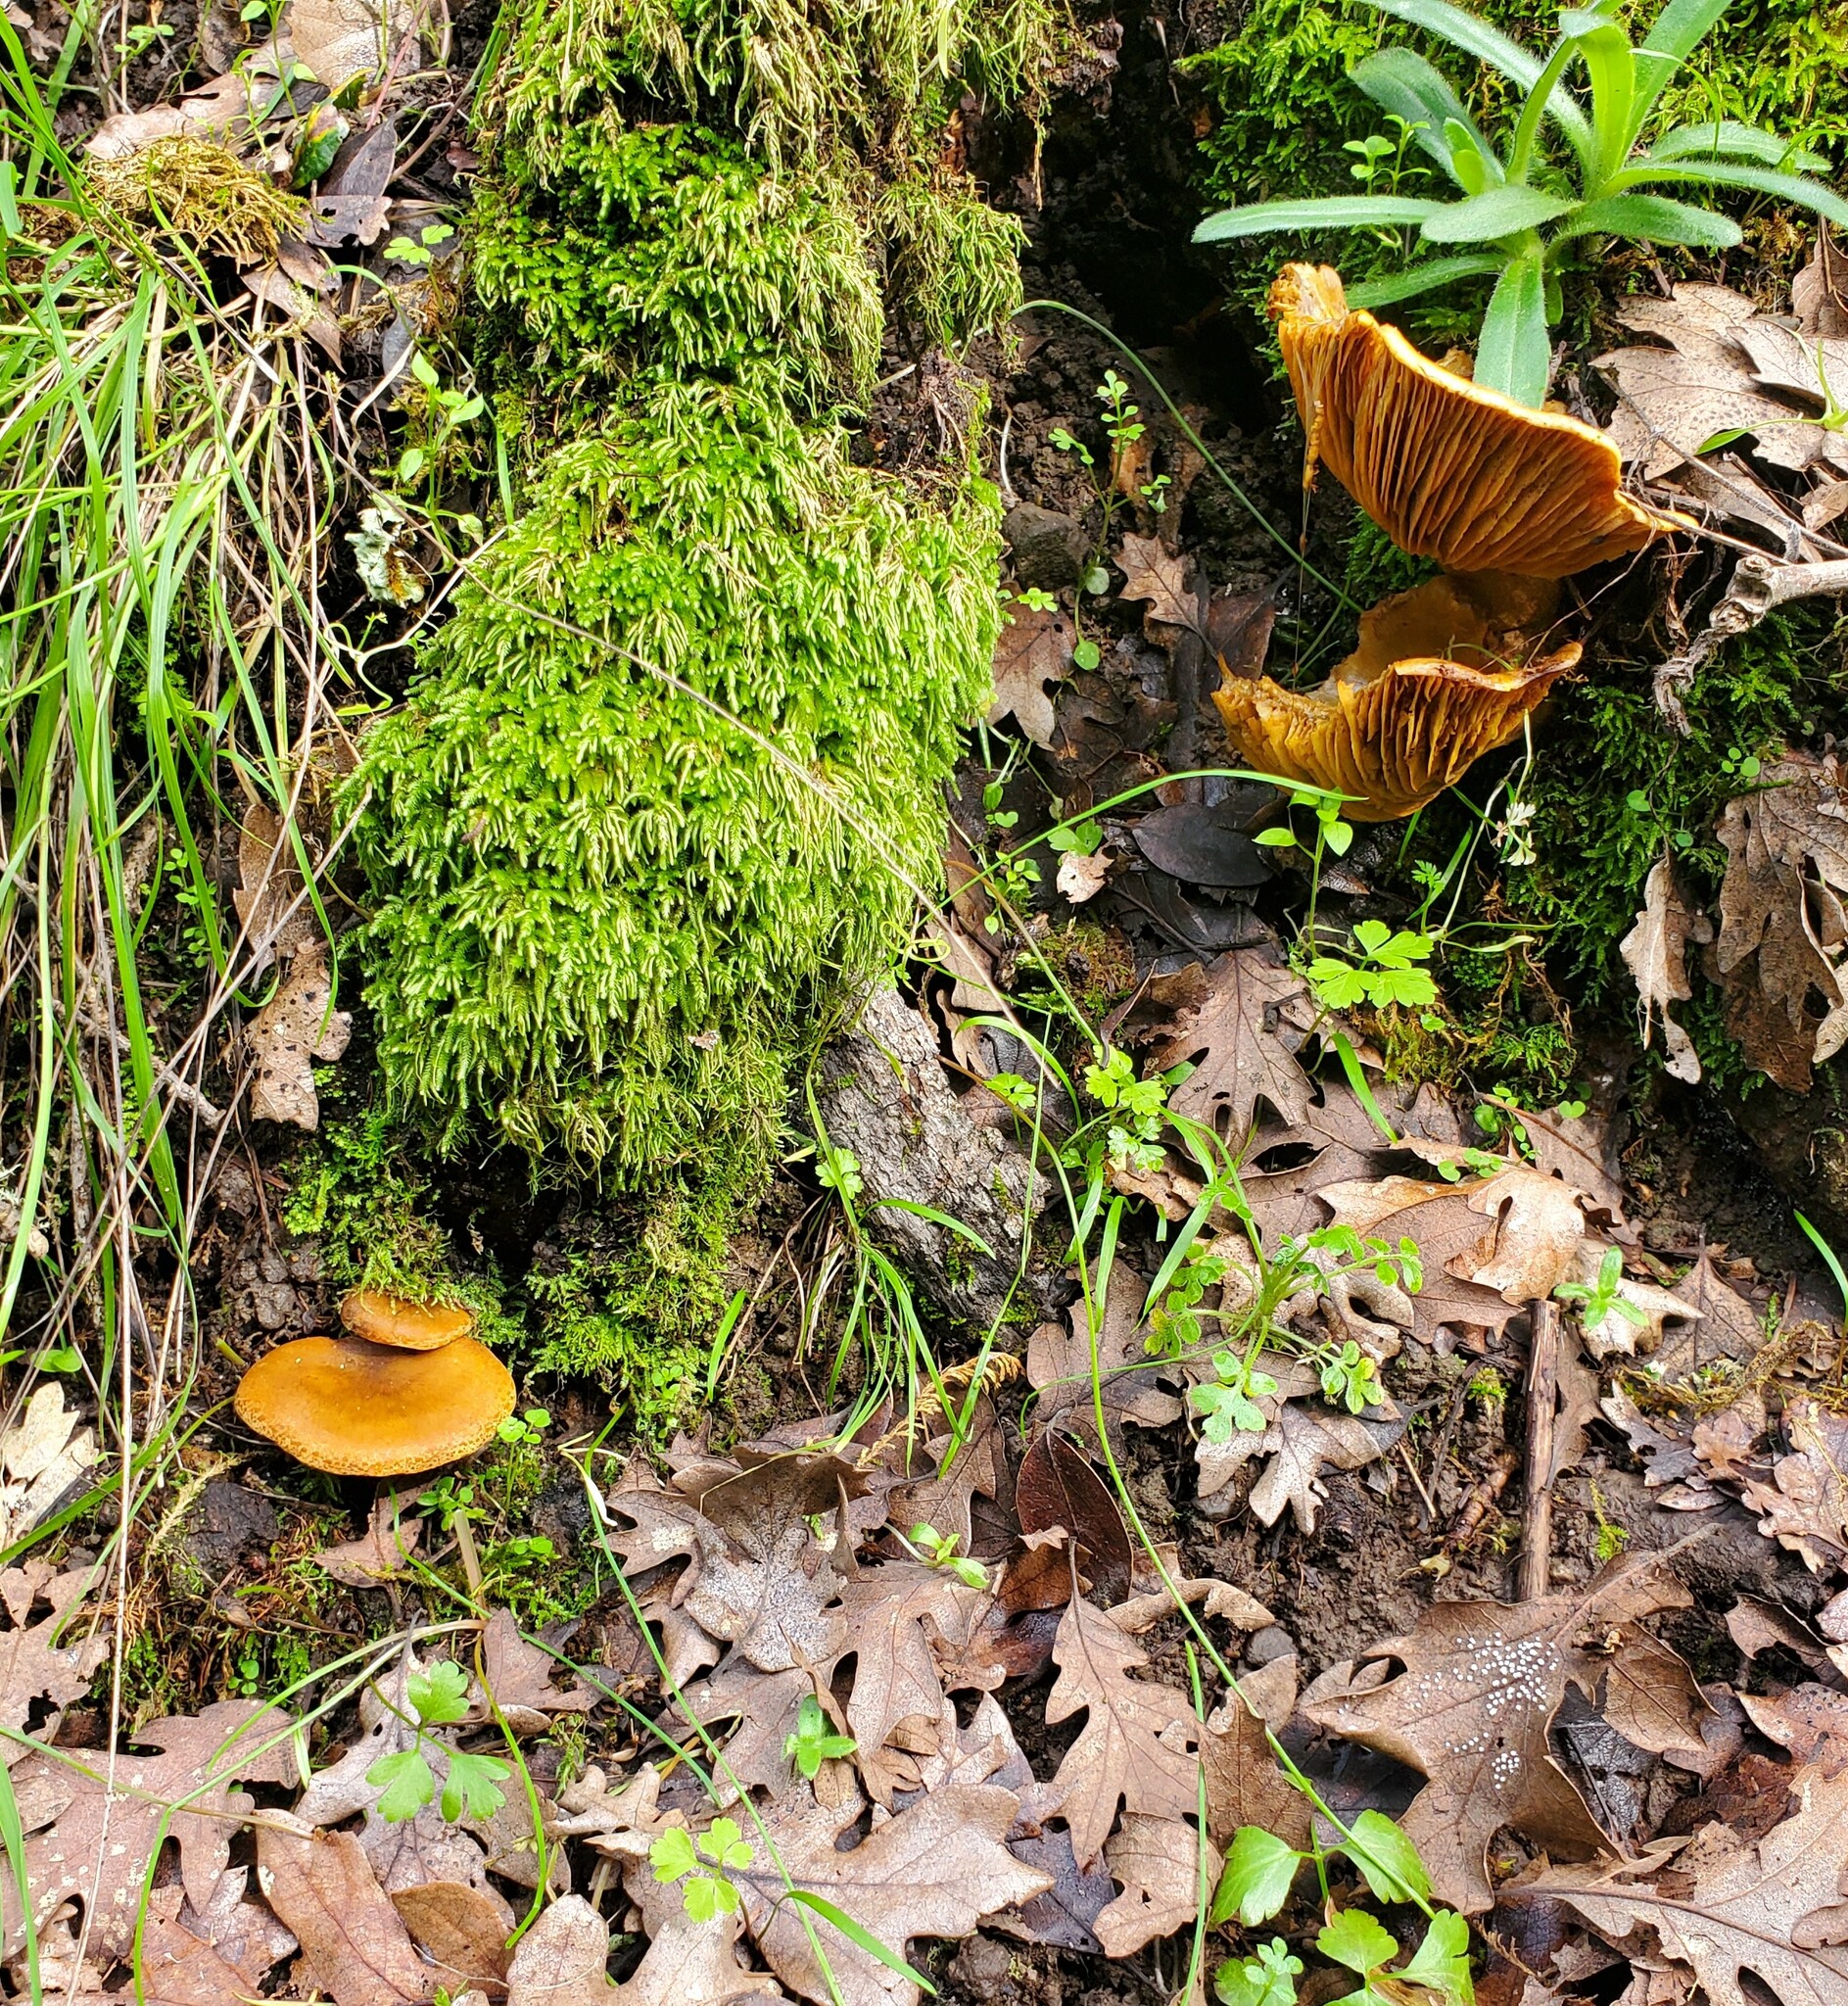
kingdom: Fungi
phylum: Basidiomycota
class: Agaricomycetes
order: Agaricales
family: Omphalotaceae
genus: Omphalotus
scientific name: Omphalotus olivascens
